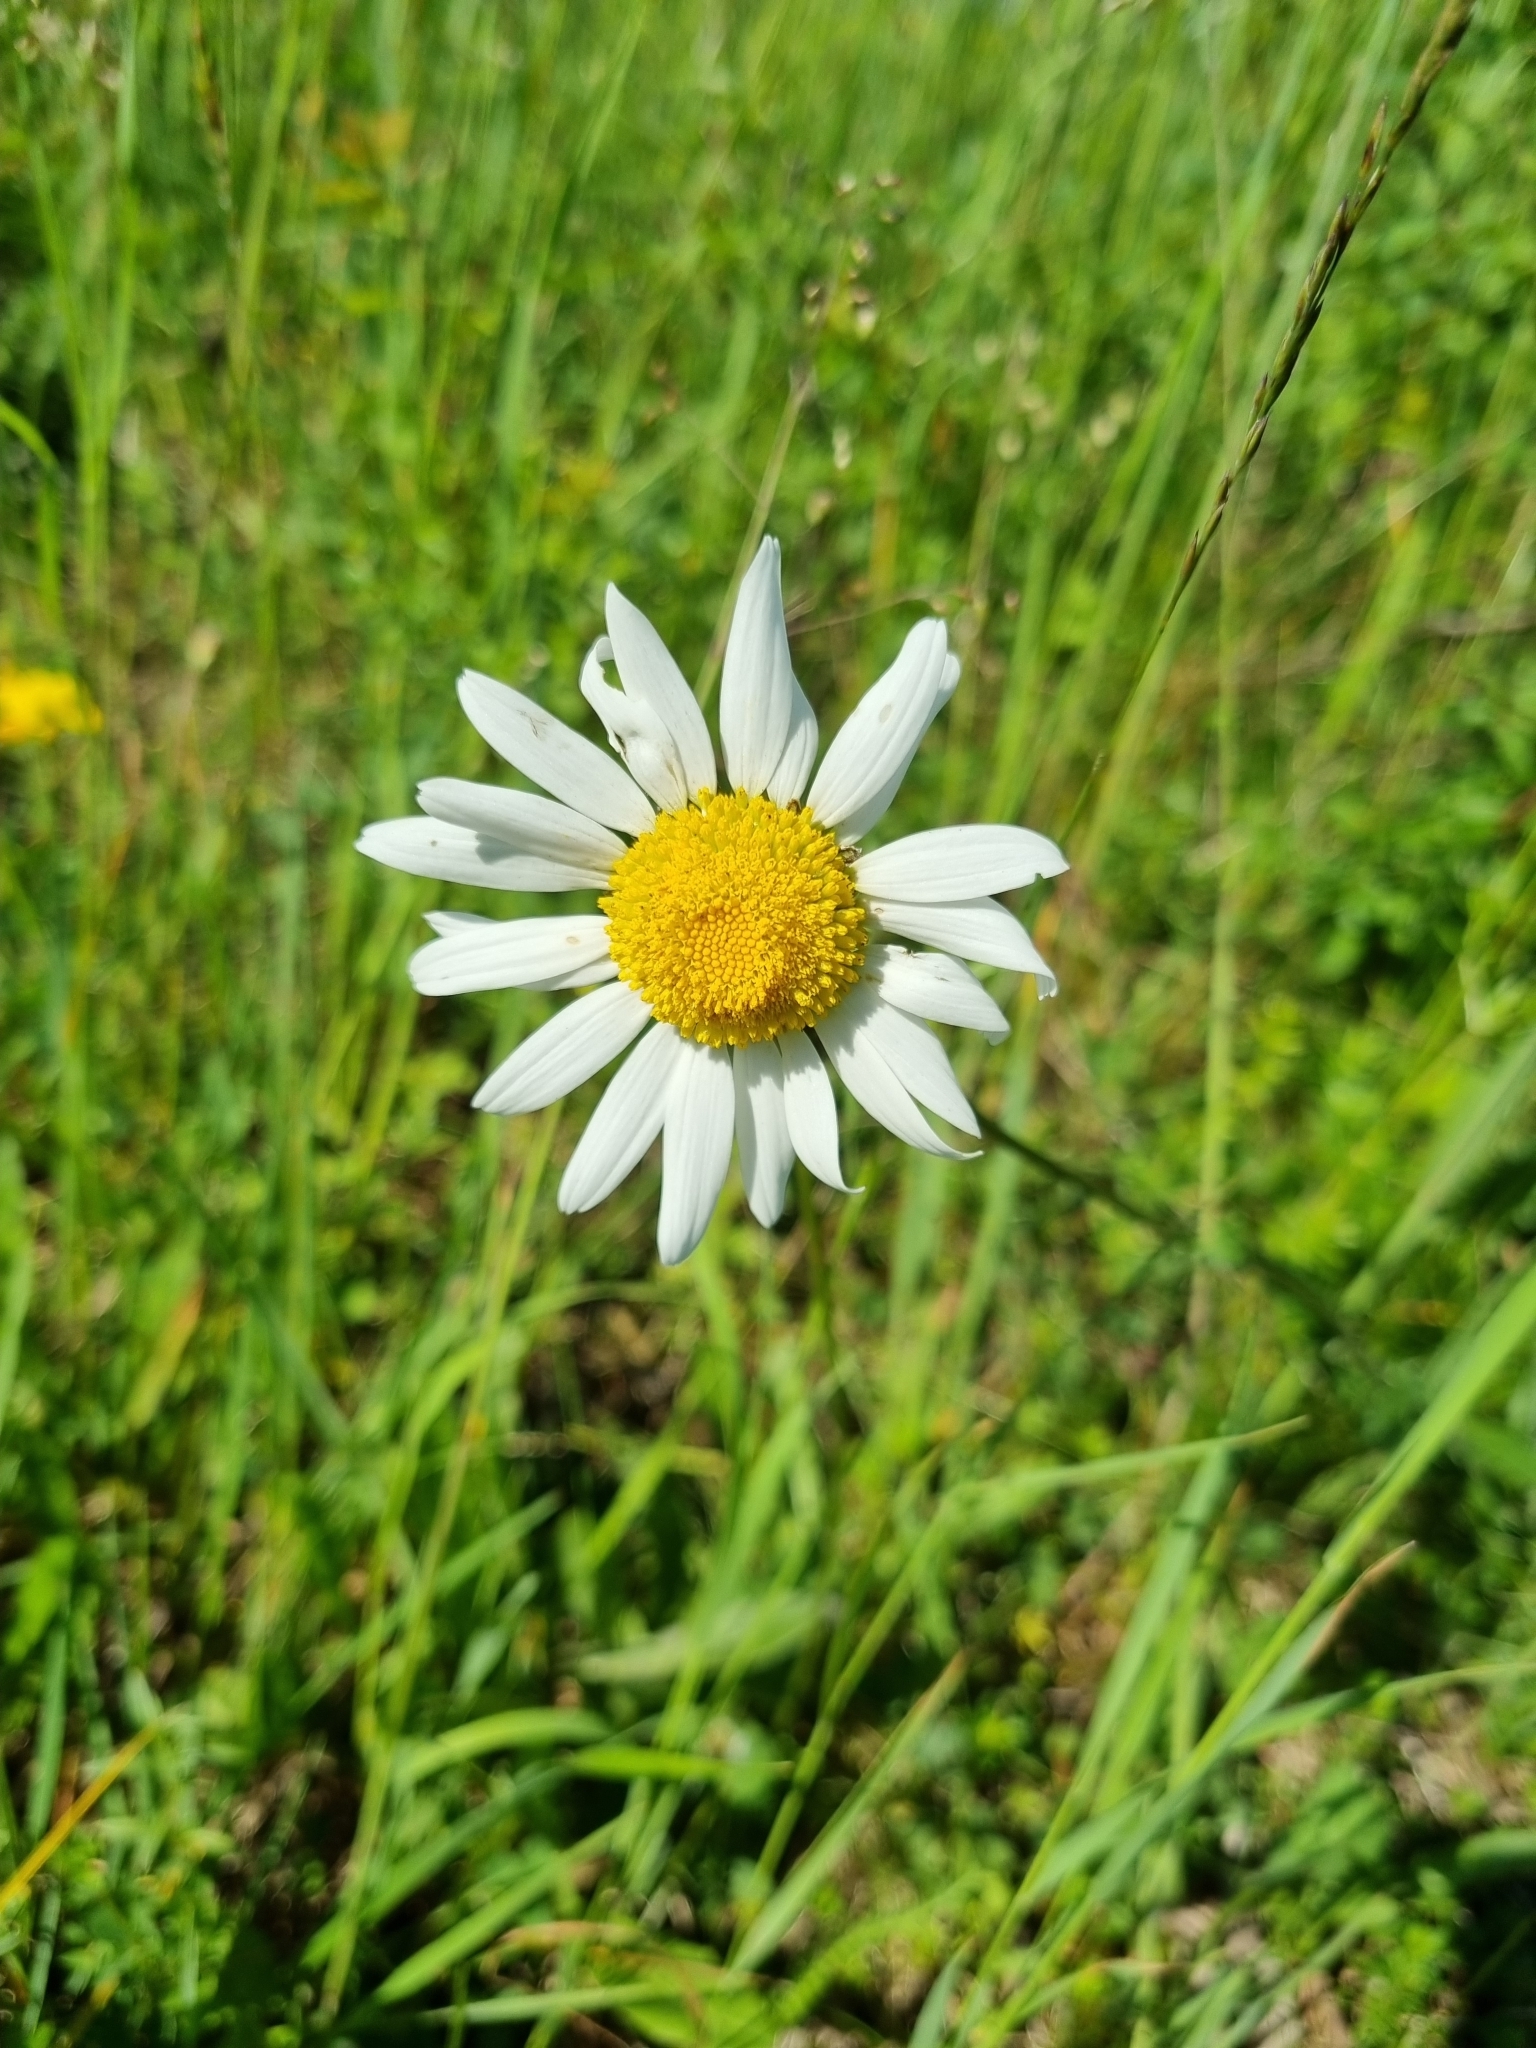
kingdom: Plantae
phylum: Tracheophyta
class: Magnoliopsida
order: Asterales
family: Asteraceae
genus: Leucanthemum
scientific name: Leucanthemum vulgare
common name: Oxeye daisy
